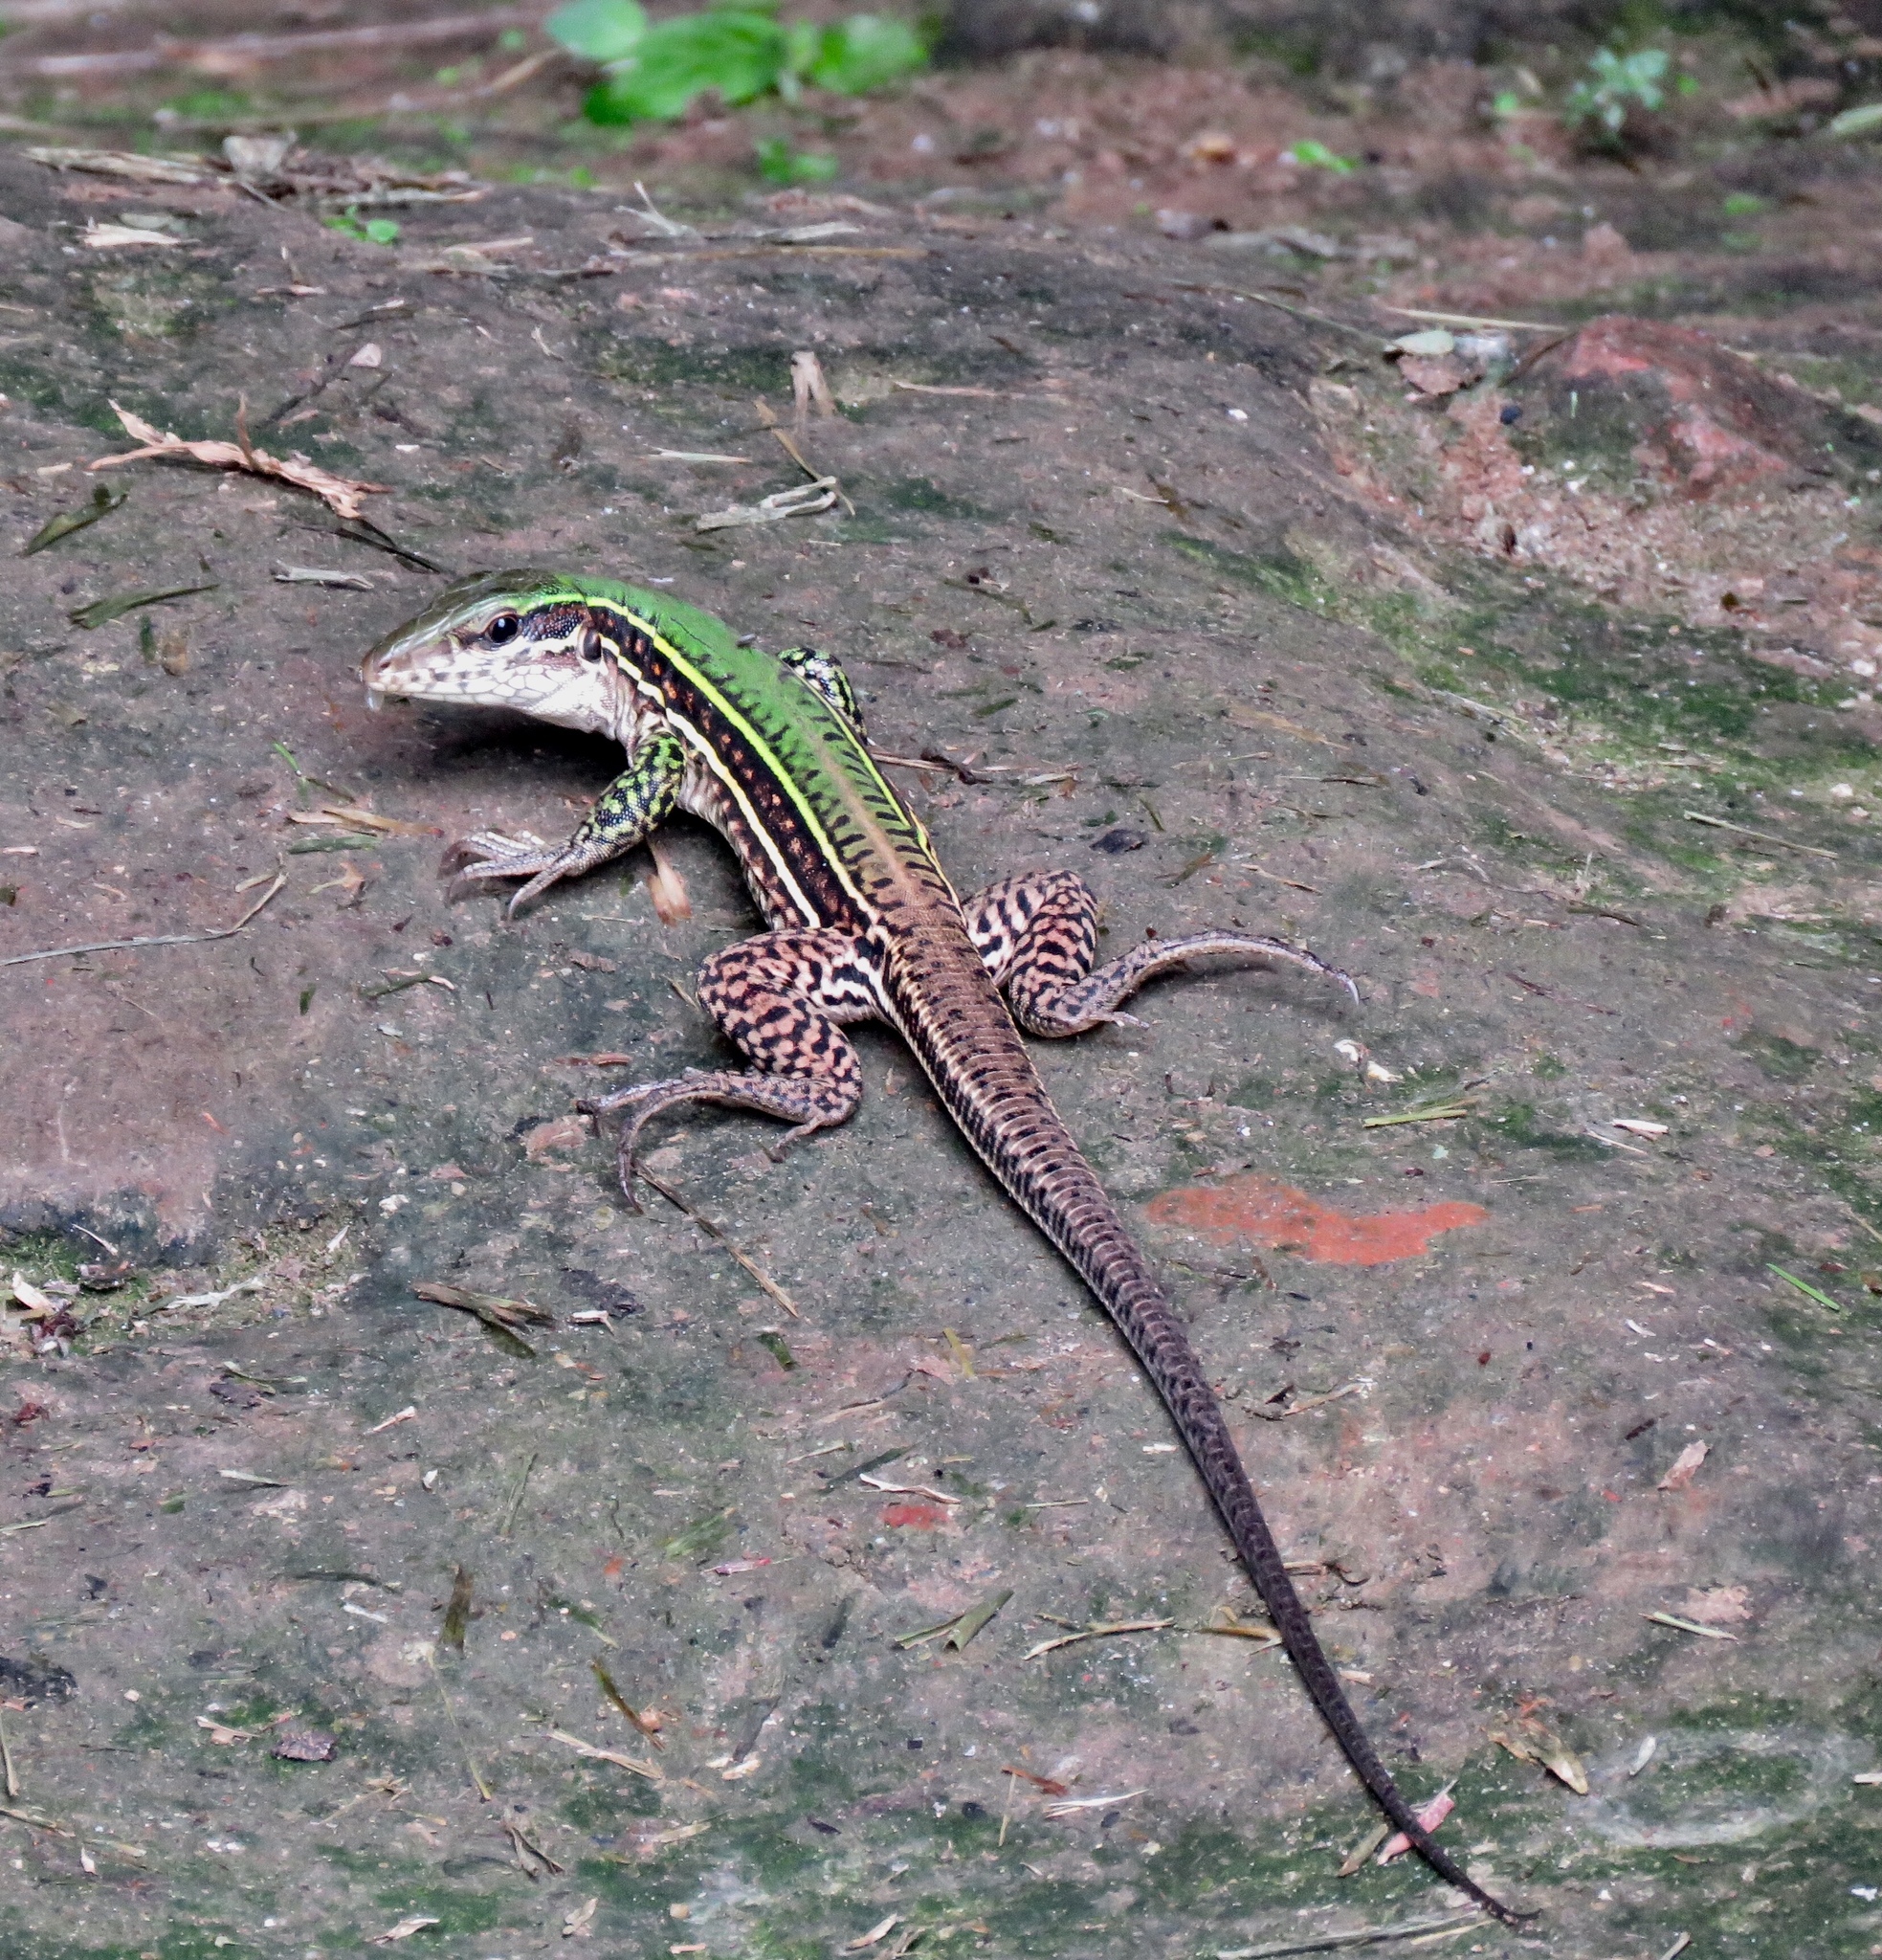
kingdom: Animalia
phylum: Chordata
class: Squamata
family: Teiidae
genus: Ameiva
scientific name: Ameiva praesignis
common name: Giant ameiva
